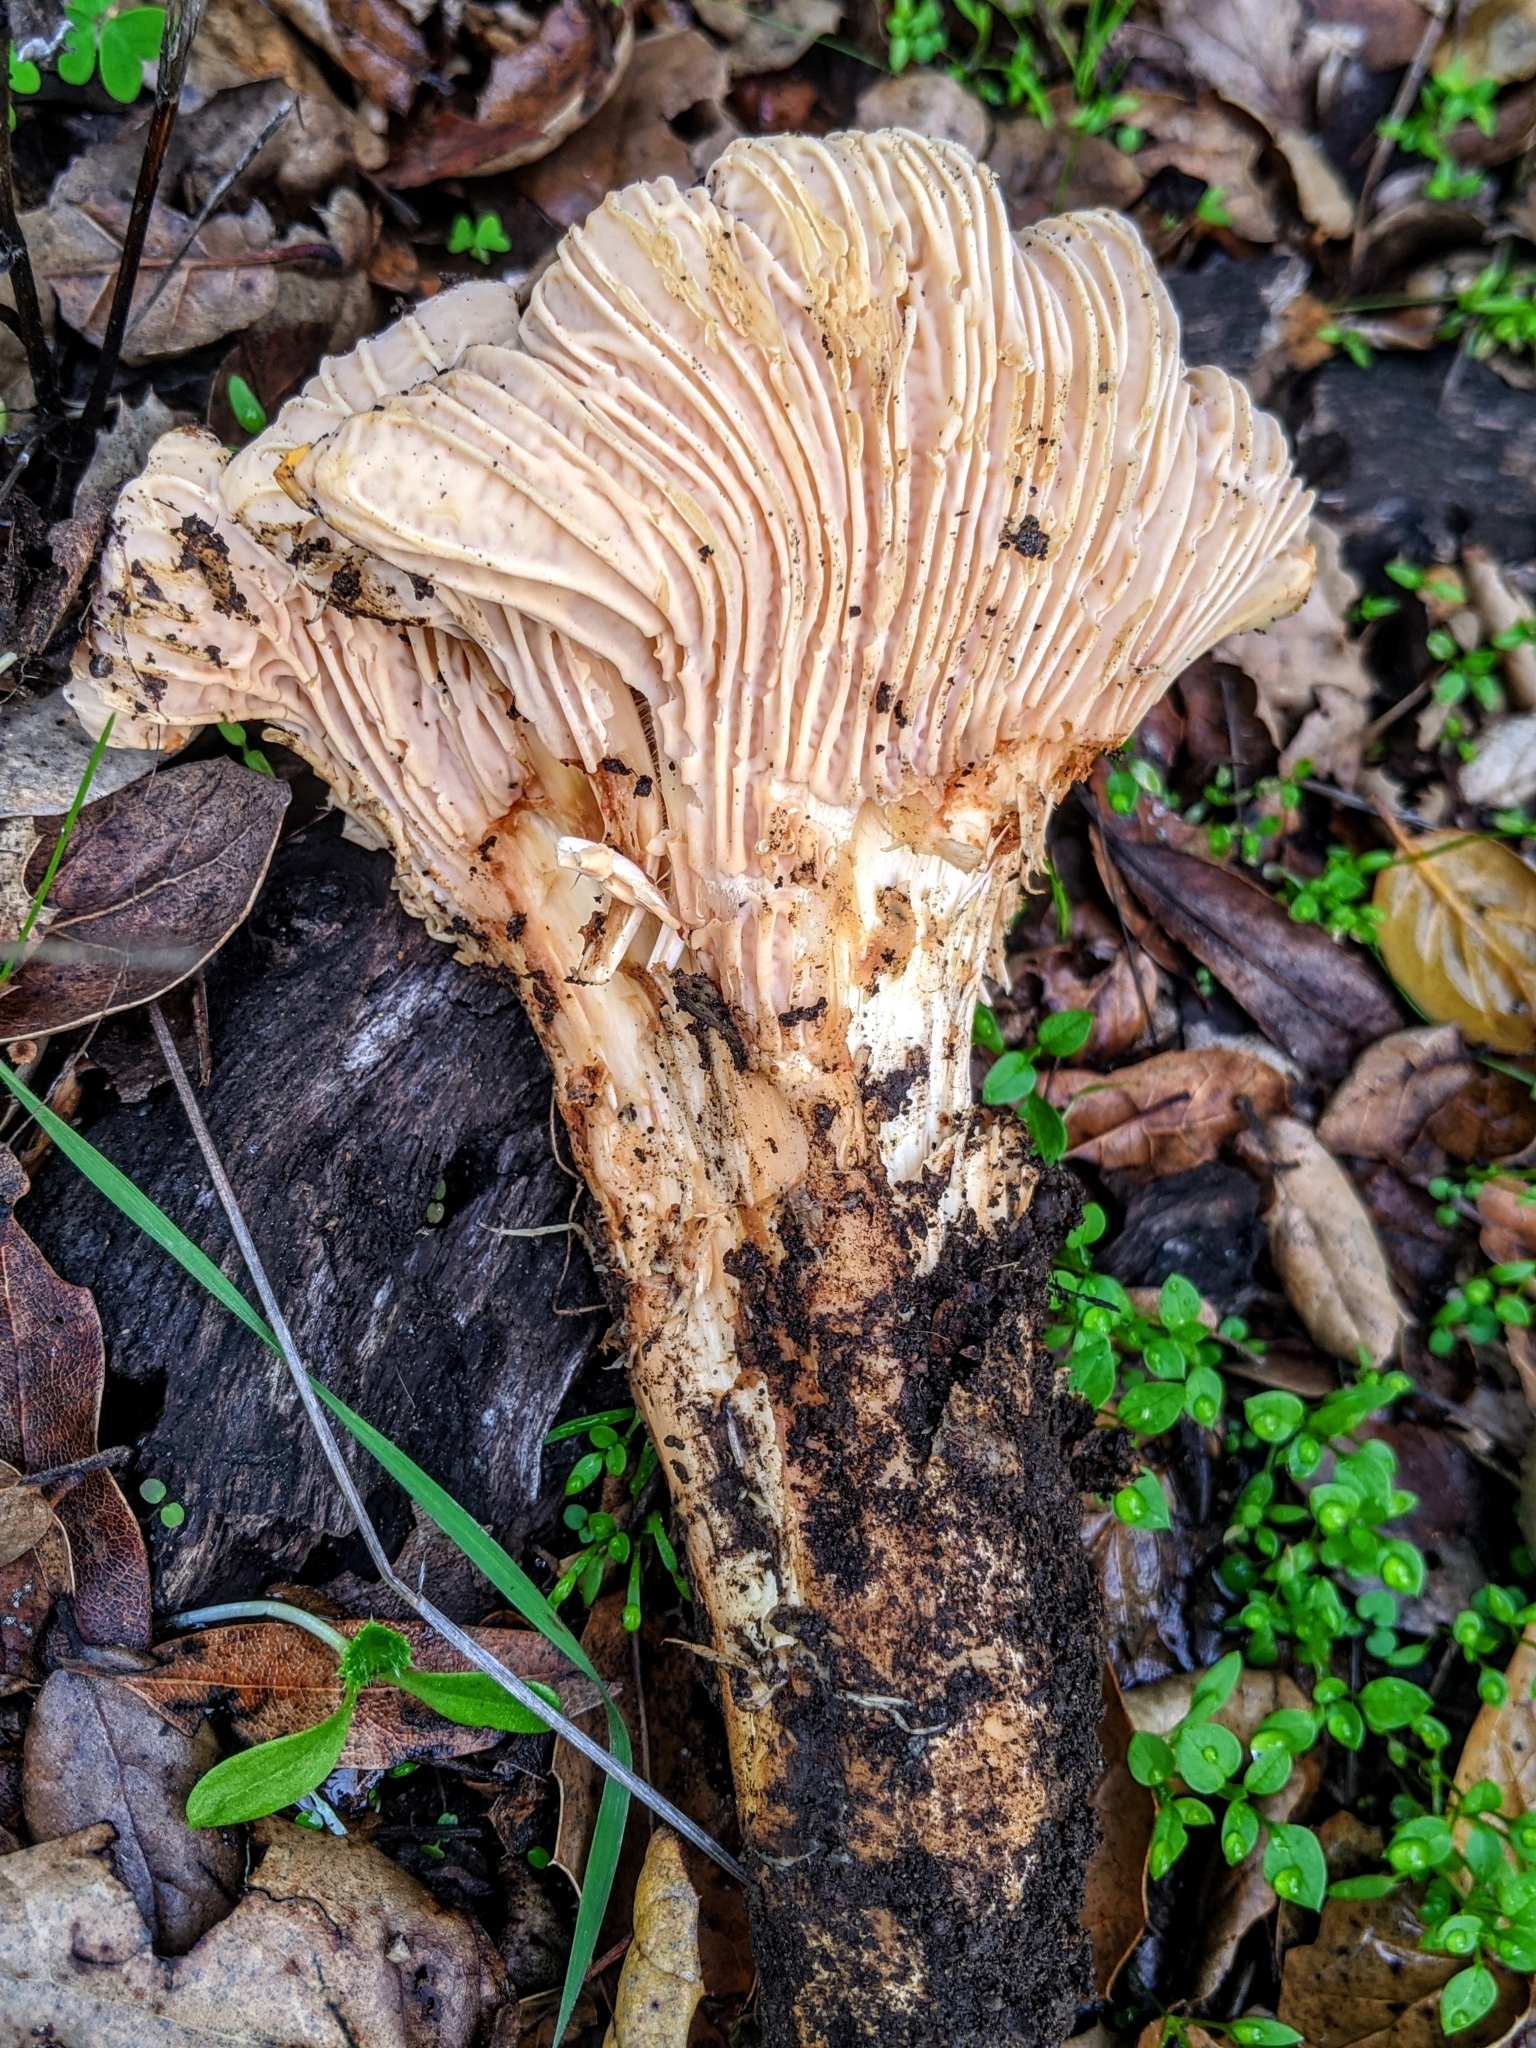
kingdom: Fungi
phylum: Basidiomycota
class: Agaricomycetes
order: Cantharellales
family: Hydnaceae
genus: Cantharellus
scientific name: Cantharellus californicus
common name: California golden chanterelle
